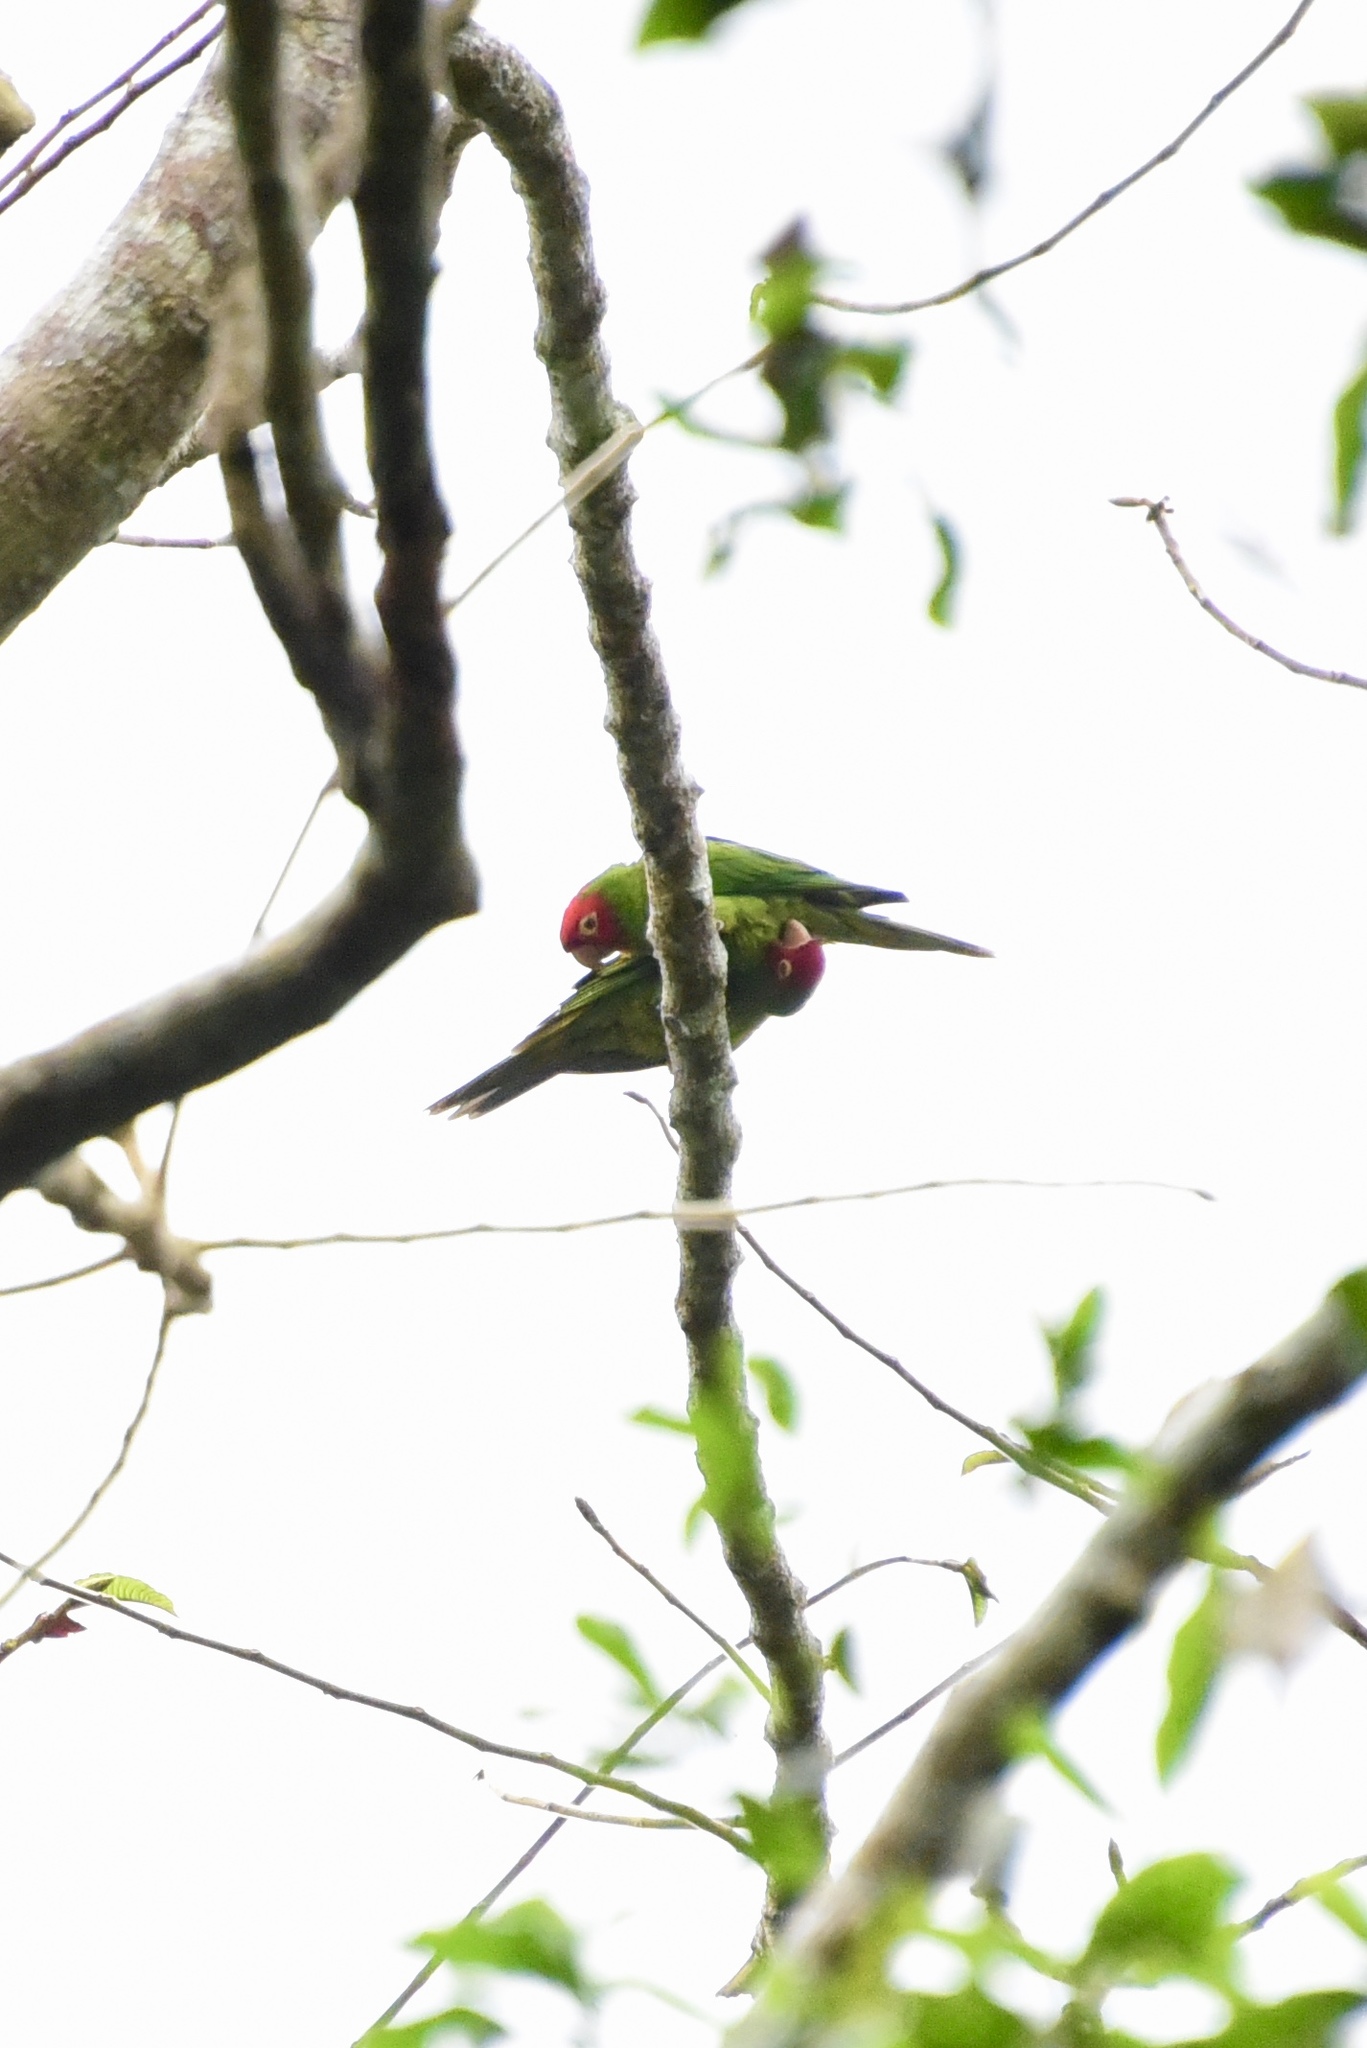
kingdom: Animalia
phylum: Chordata
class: Aves
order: Psittaciformes
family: Psittacidae
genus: Aratinga
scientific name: Aratinga erythrogenys
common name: Red-masked parakeet
